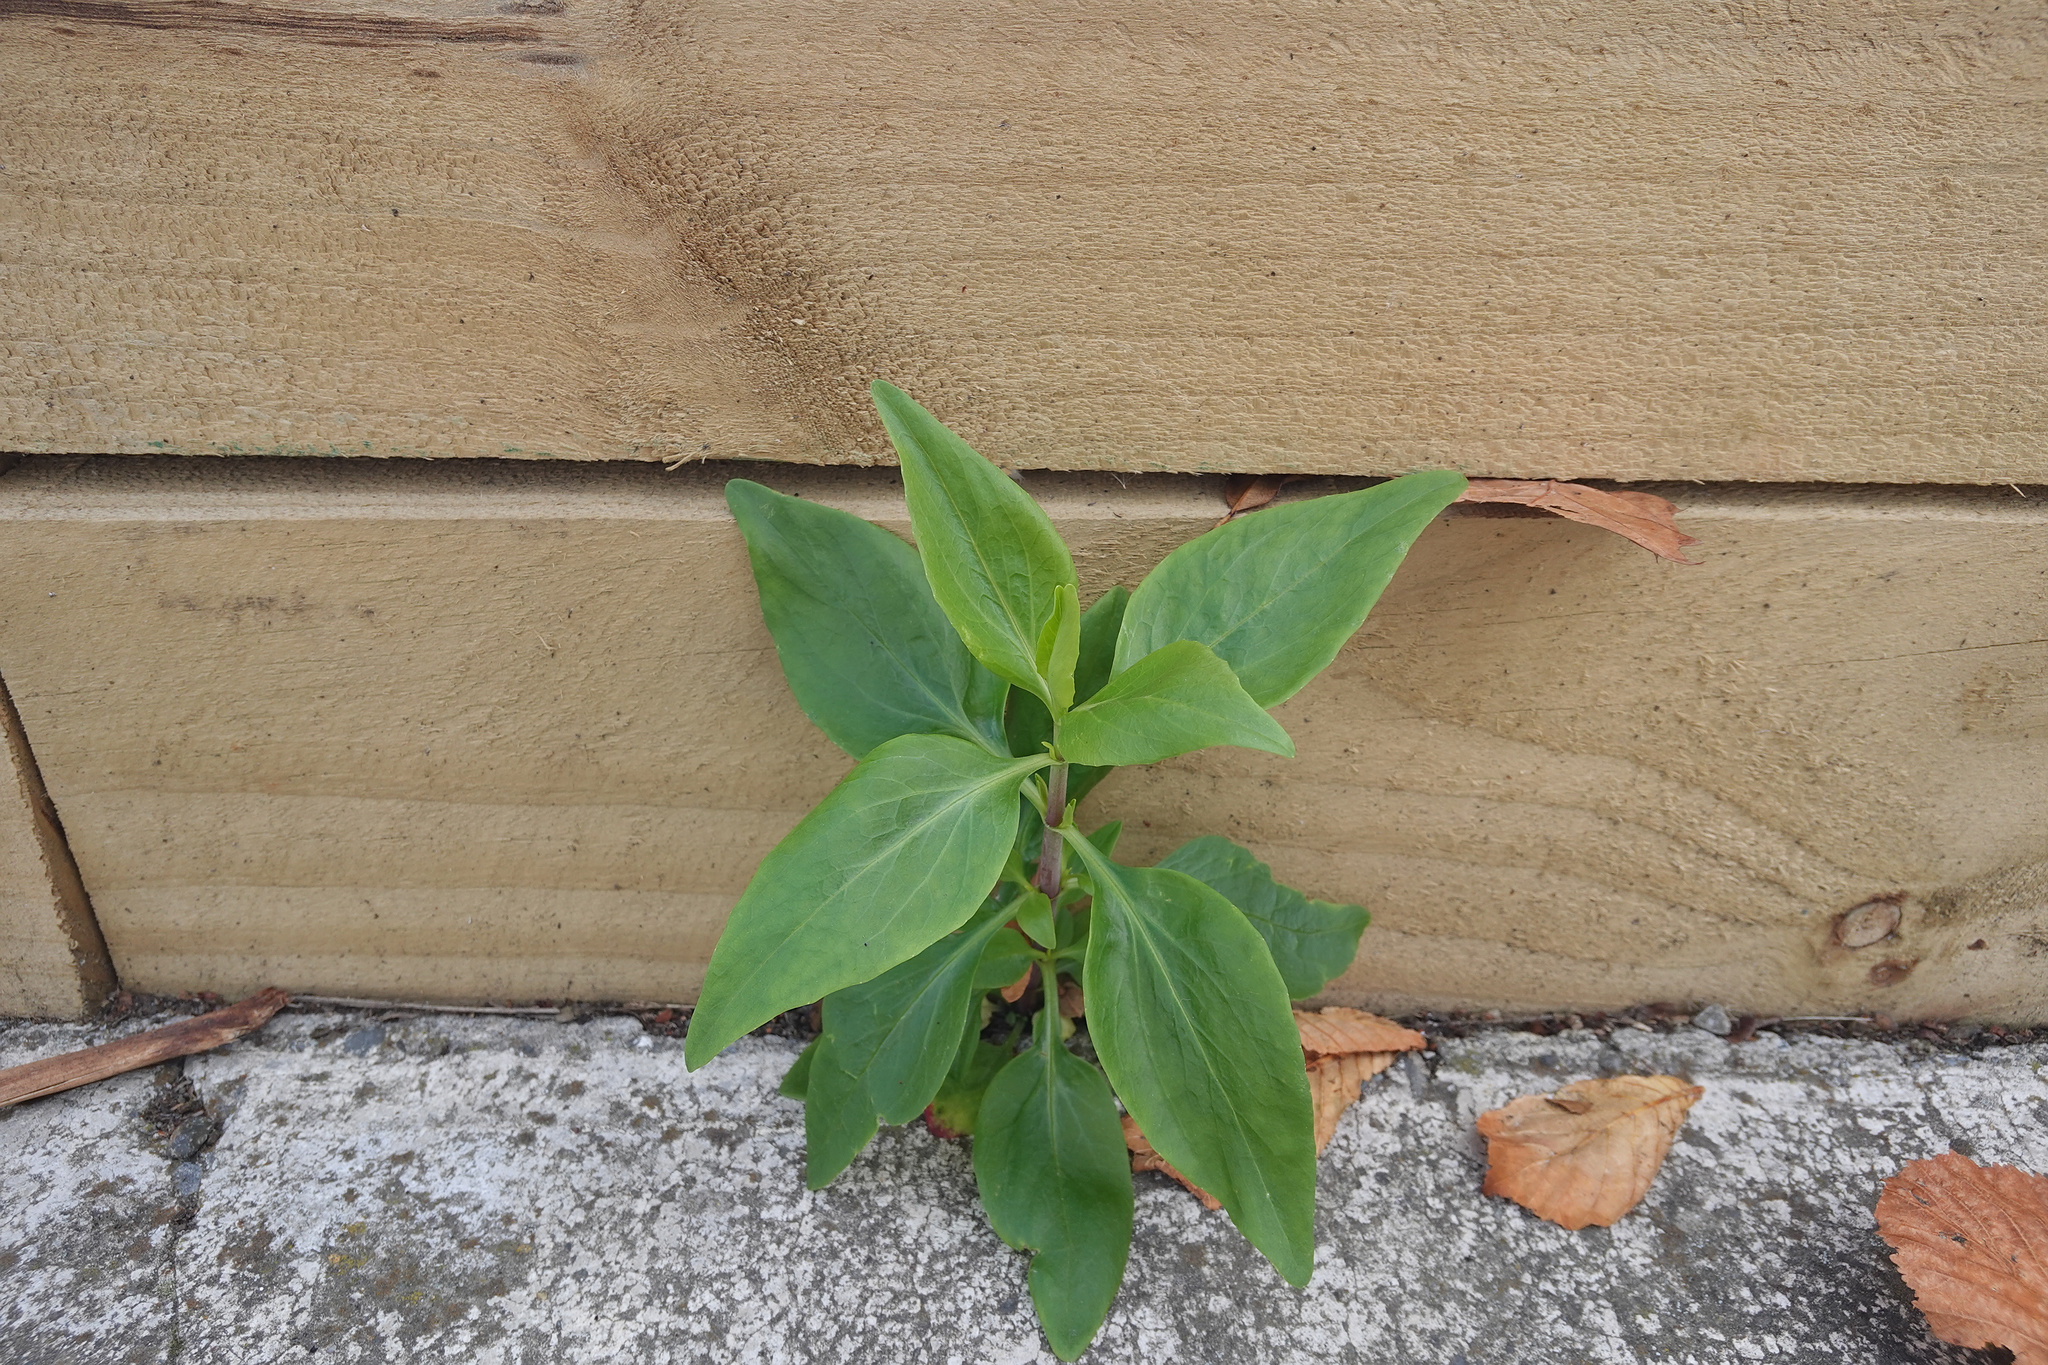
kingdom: Plantae
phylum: Tracheophyta
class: Magnoliopsida
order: Dipsacales
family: Caprifoliaceae
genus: Centranthus
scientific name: Centranthus ruber
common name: Red valerian
